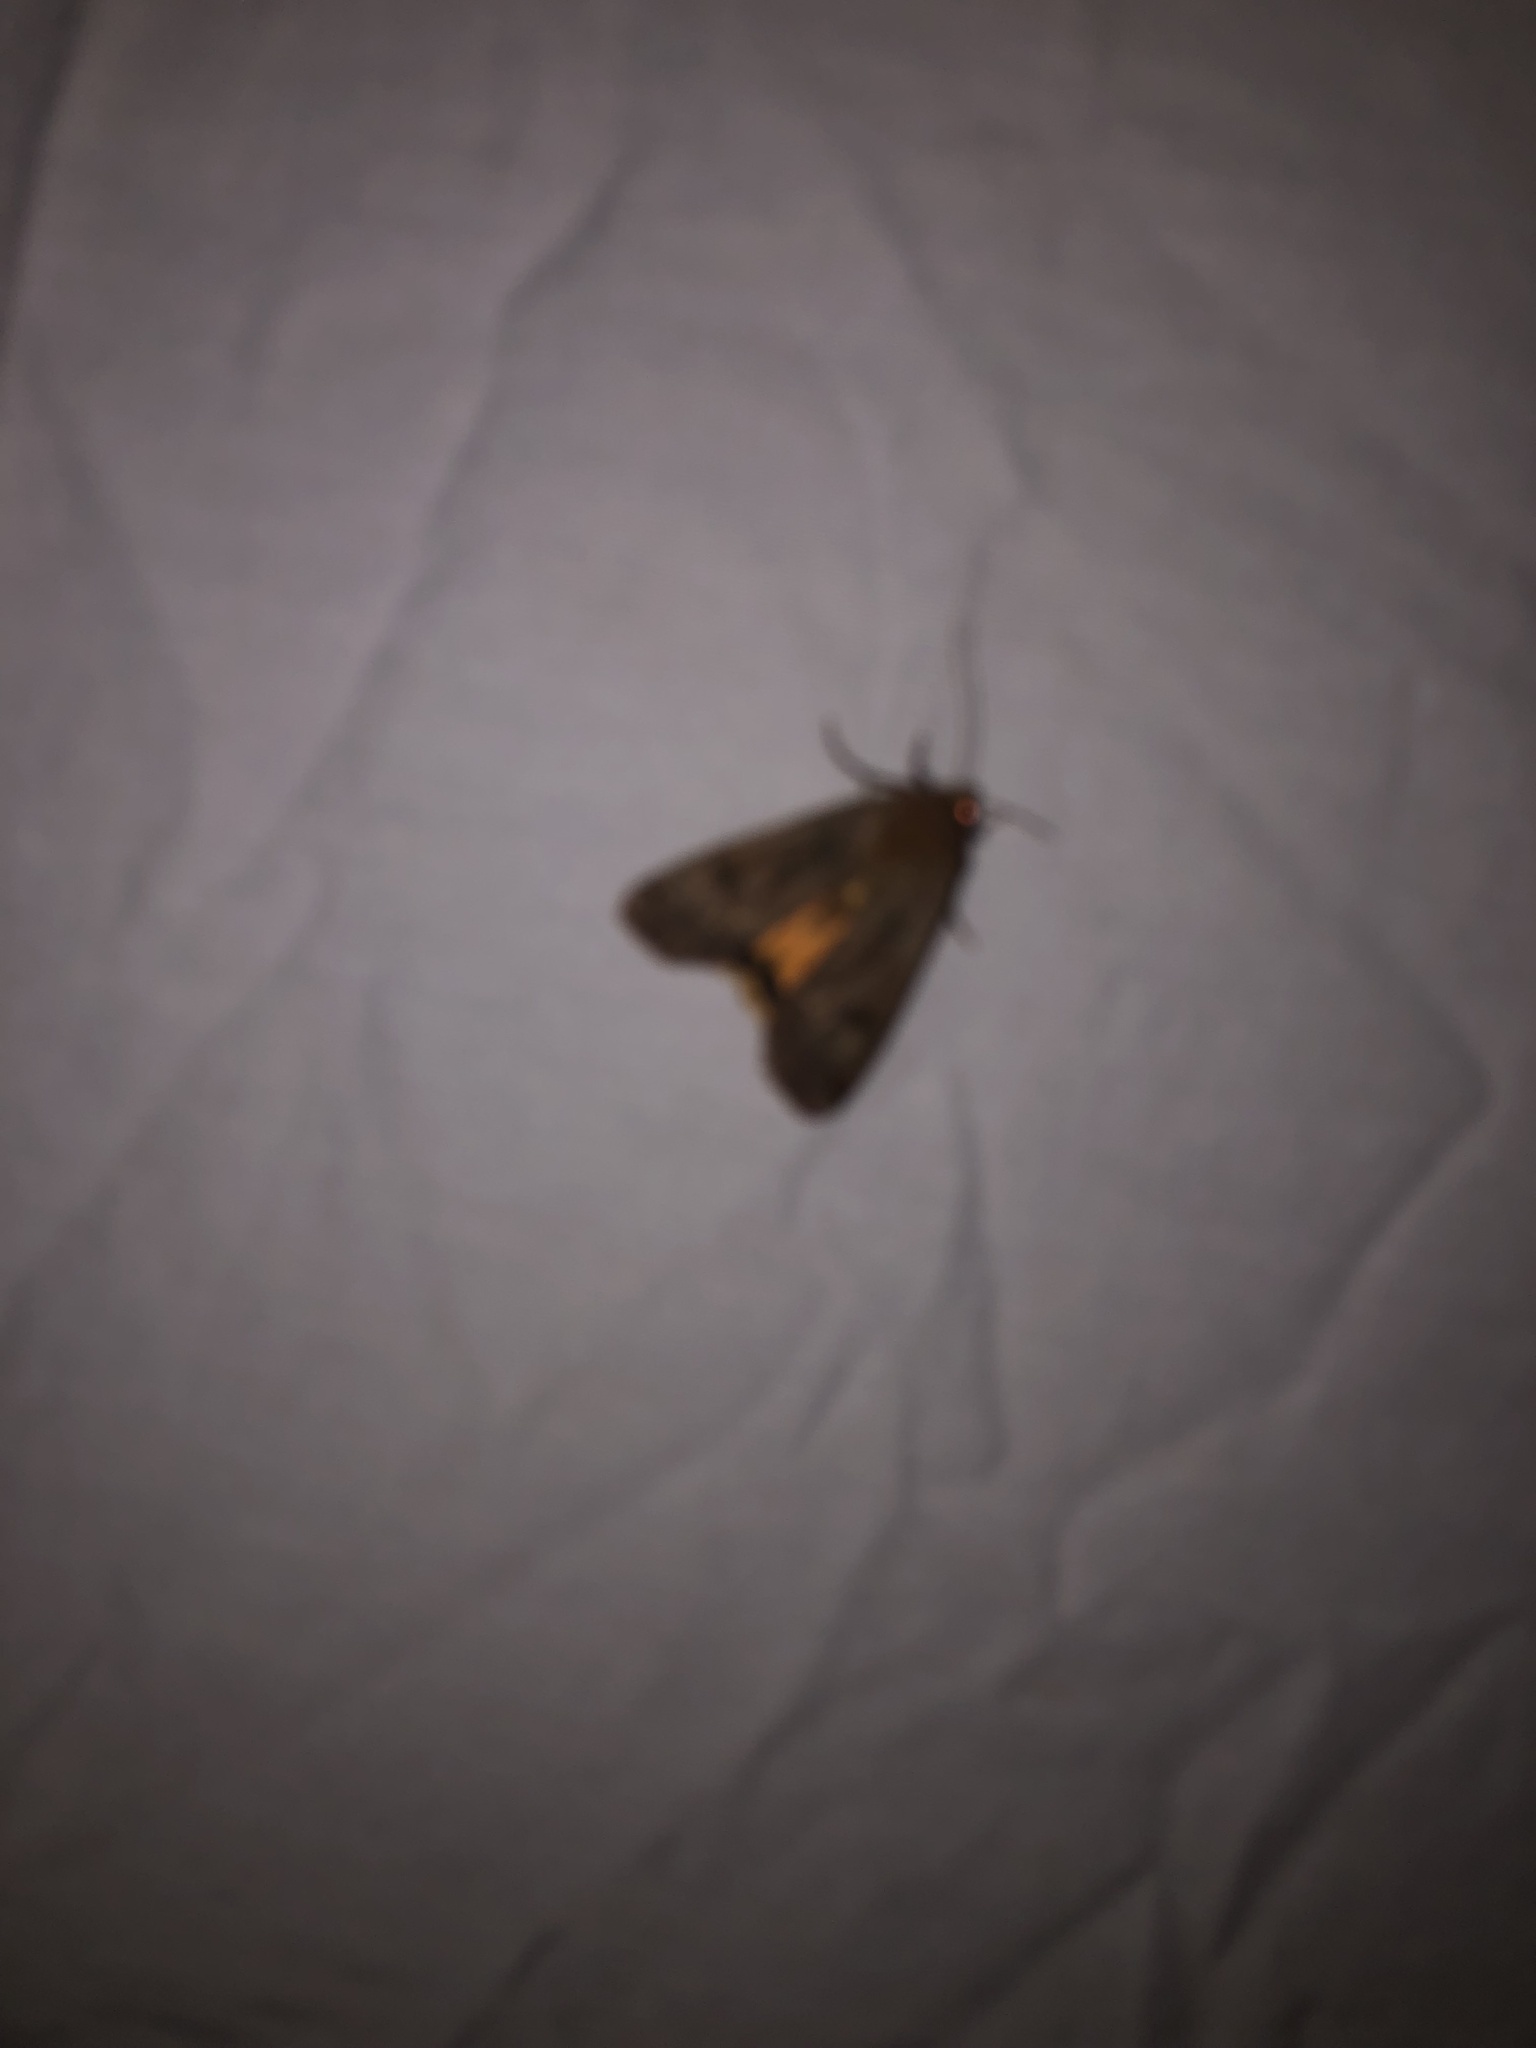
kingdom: Animalia
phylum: Arthropoda
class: Insecta
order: Lepidoptera
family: Noctuidae
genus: Noctua
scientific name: Noctua pronuba
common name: Large yellow underwing
